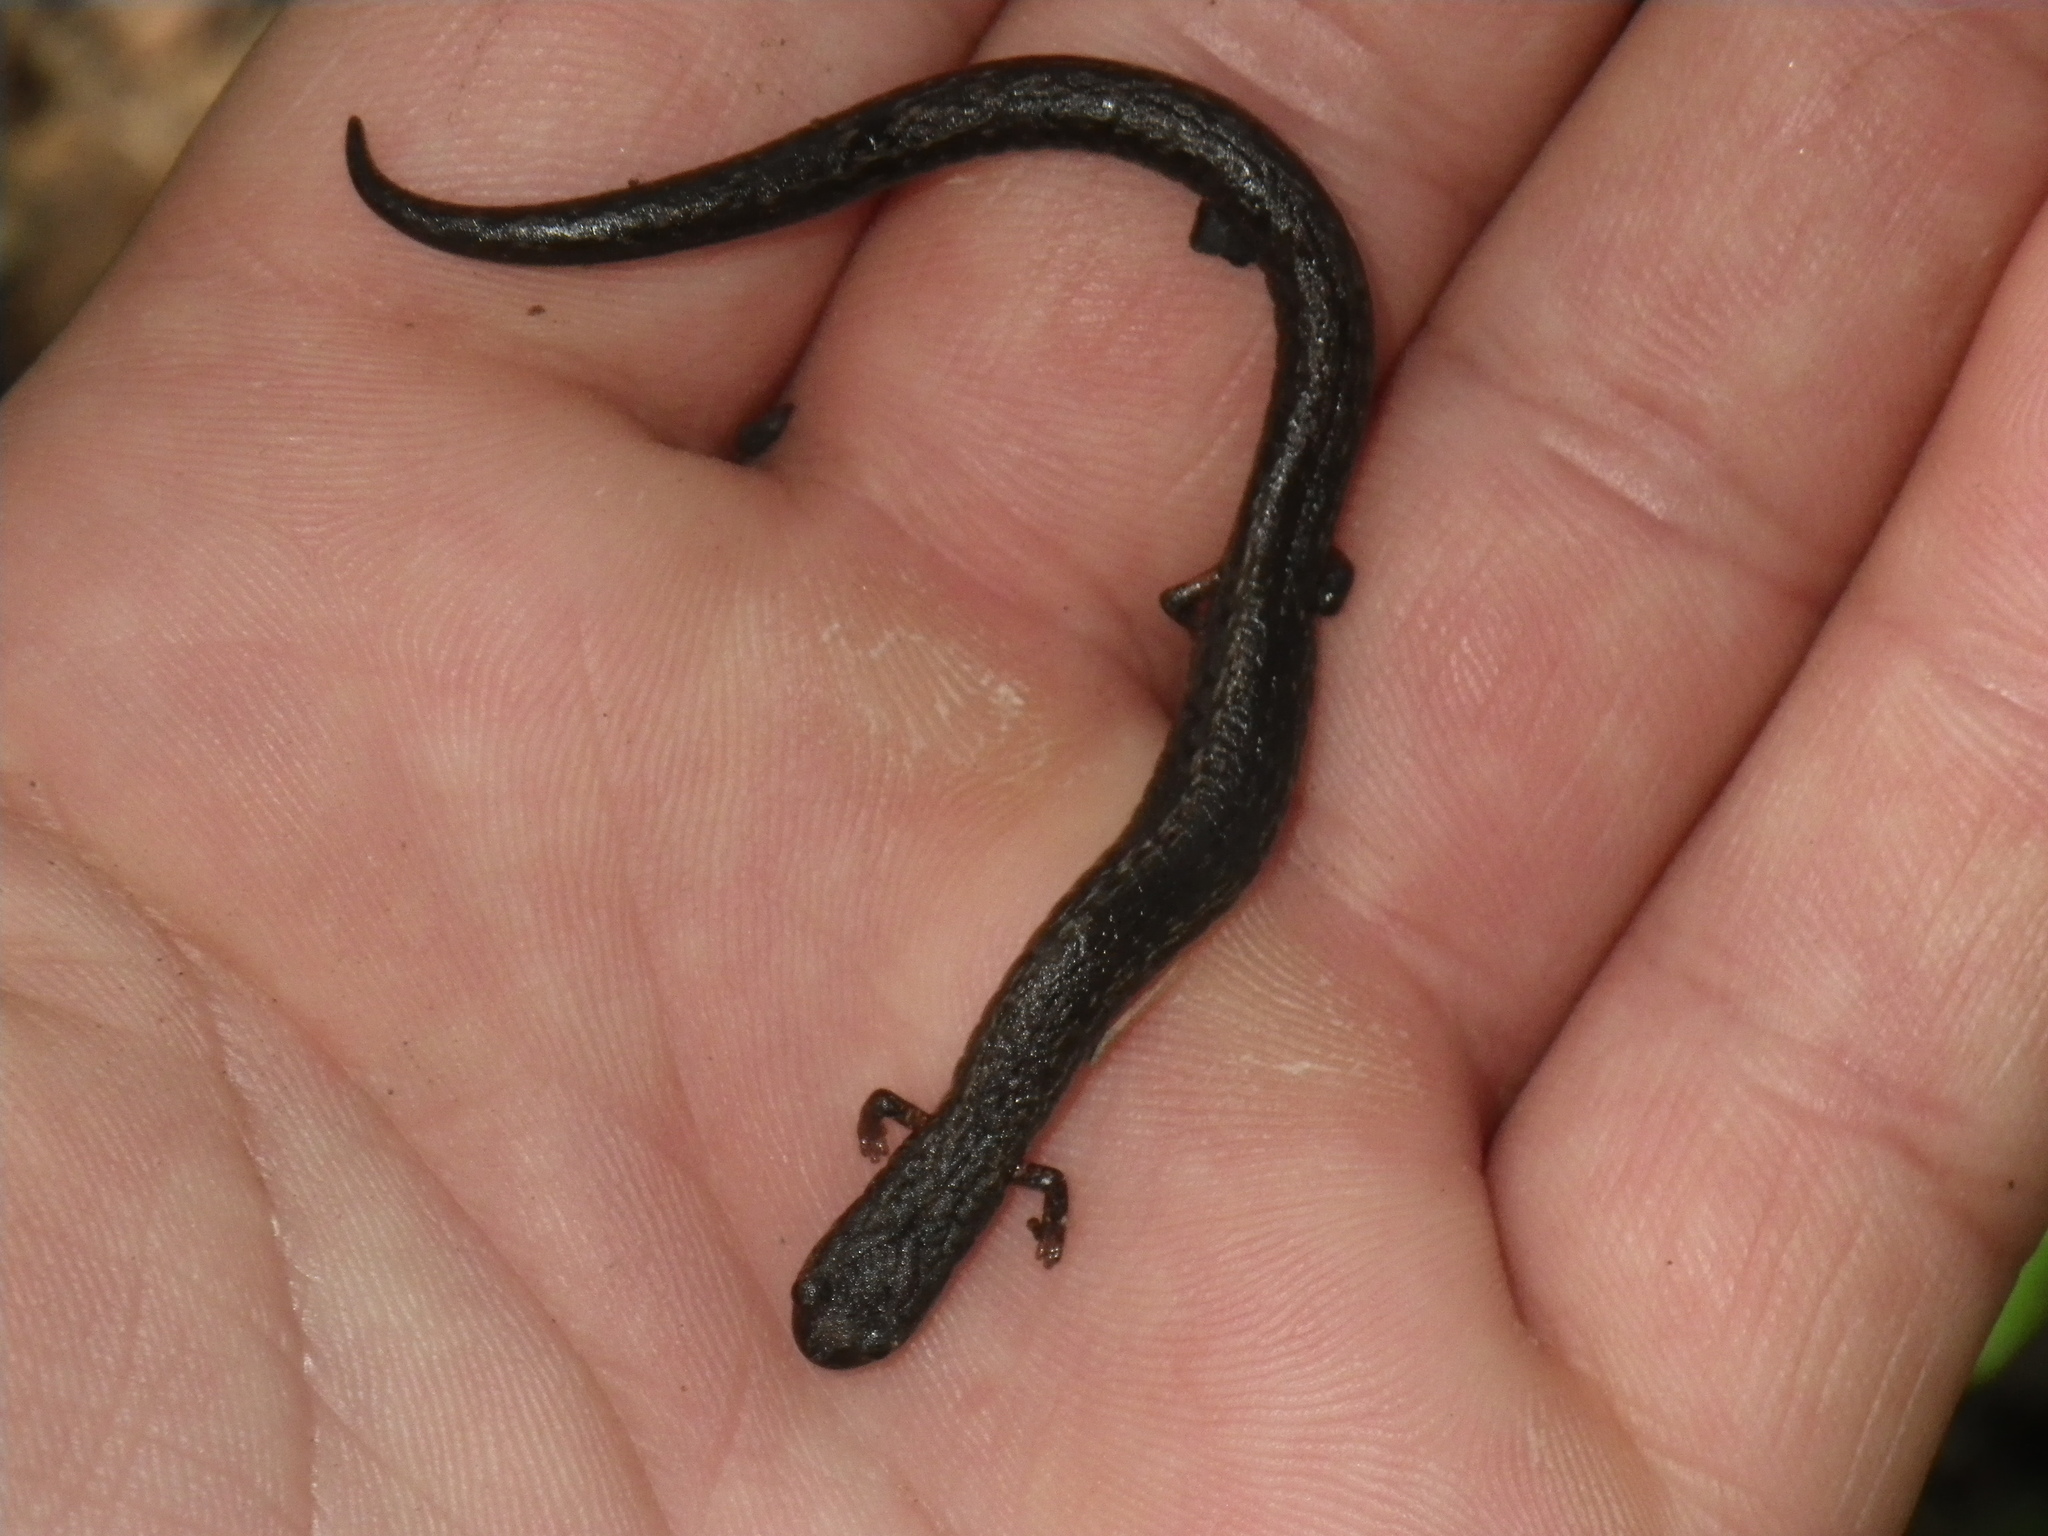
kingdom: Animalia
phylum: Chordata
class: Amphibia
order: Caudata
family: Plethodontidae
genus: Batrachoseps
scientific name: Batrachoseps attenuatus
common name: California slender salamander
